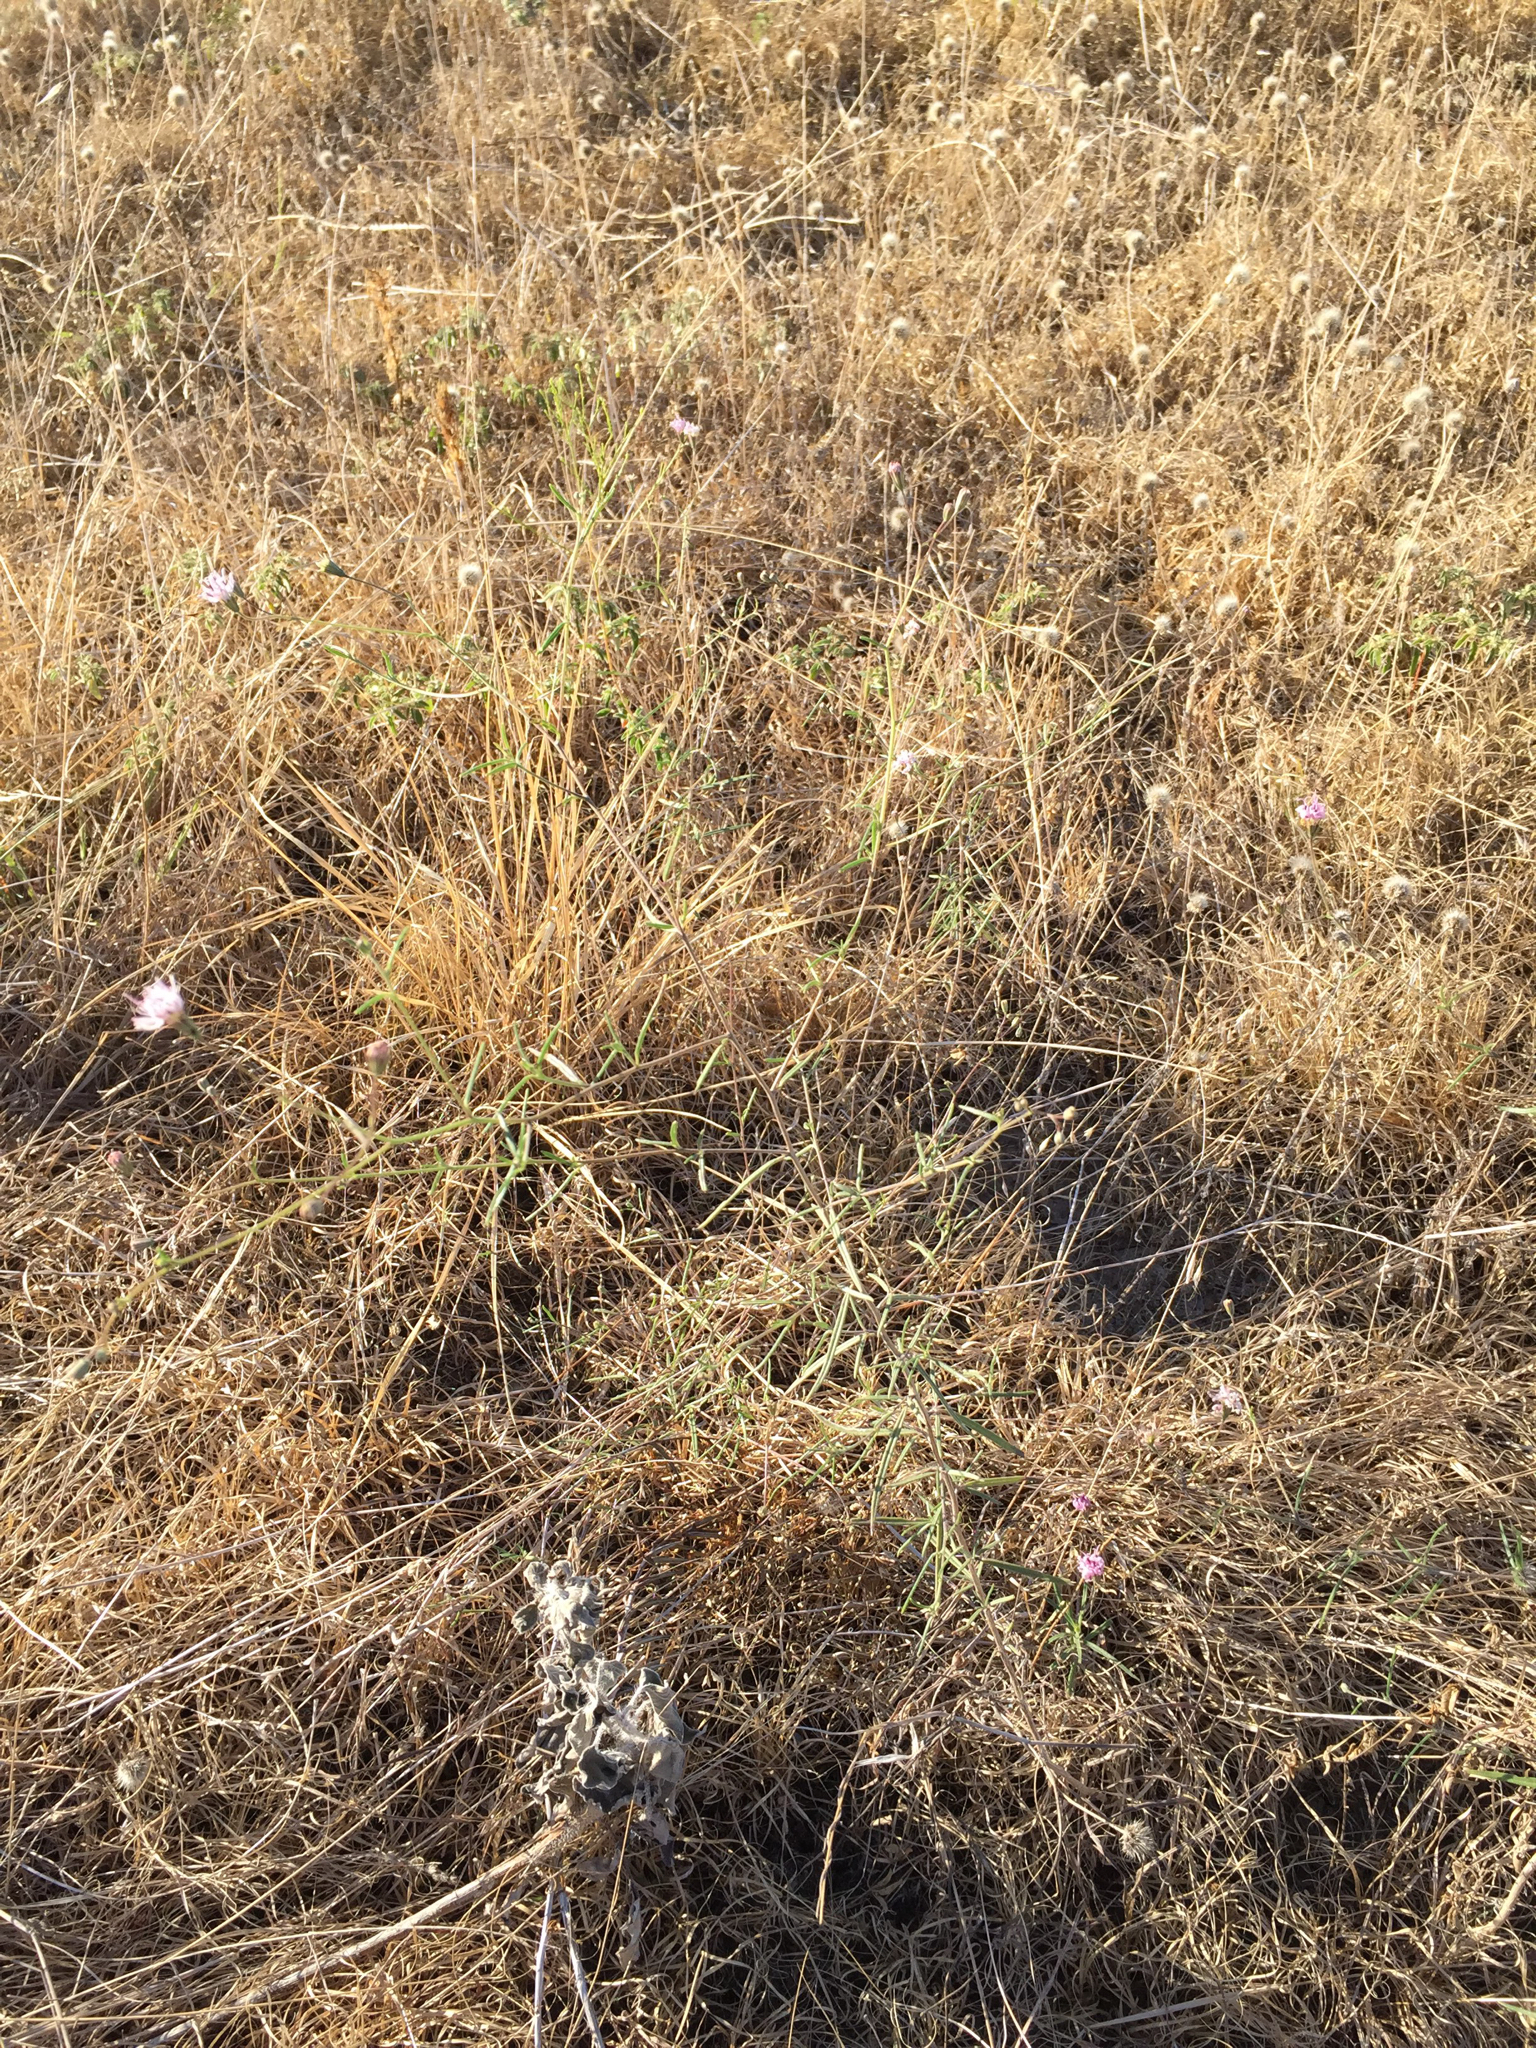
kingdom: Plantae
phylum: Tracheophyta
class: Magnoliopsida
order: Asterales
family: Asteraceae
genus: Palafoxia
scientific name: Palafoxia callosa
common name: Small palafox
